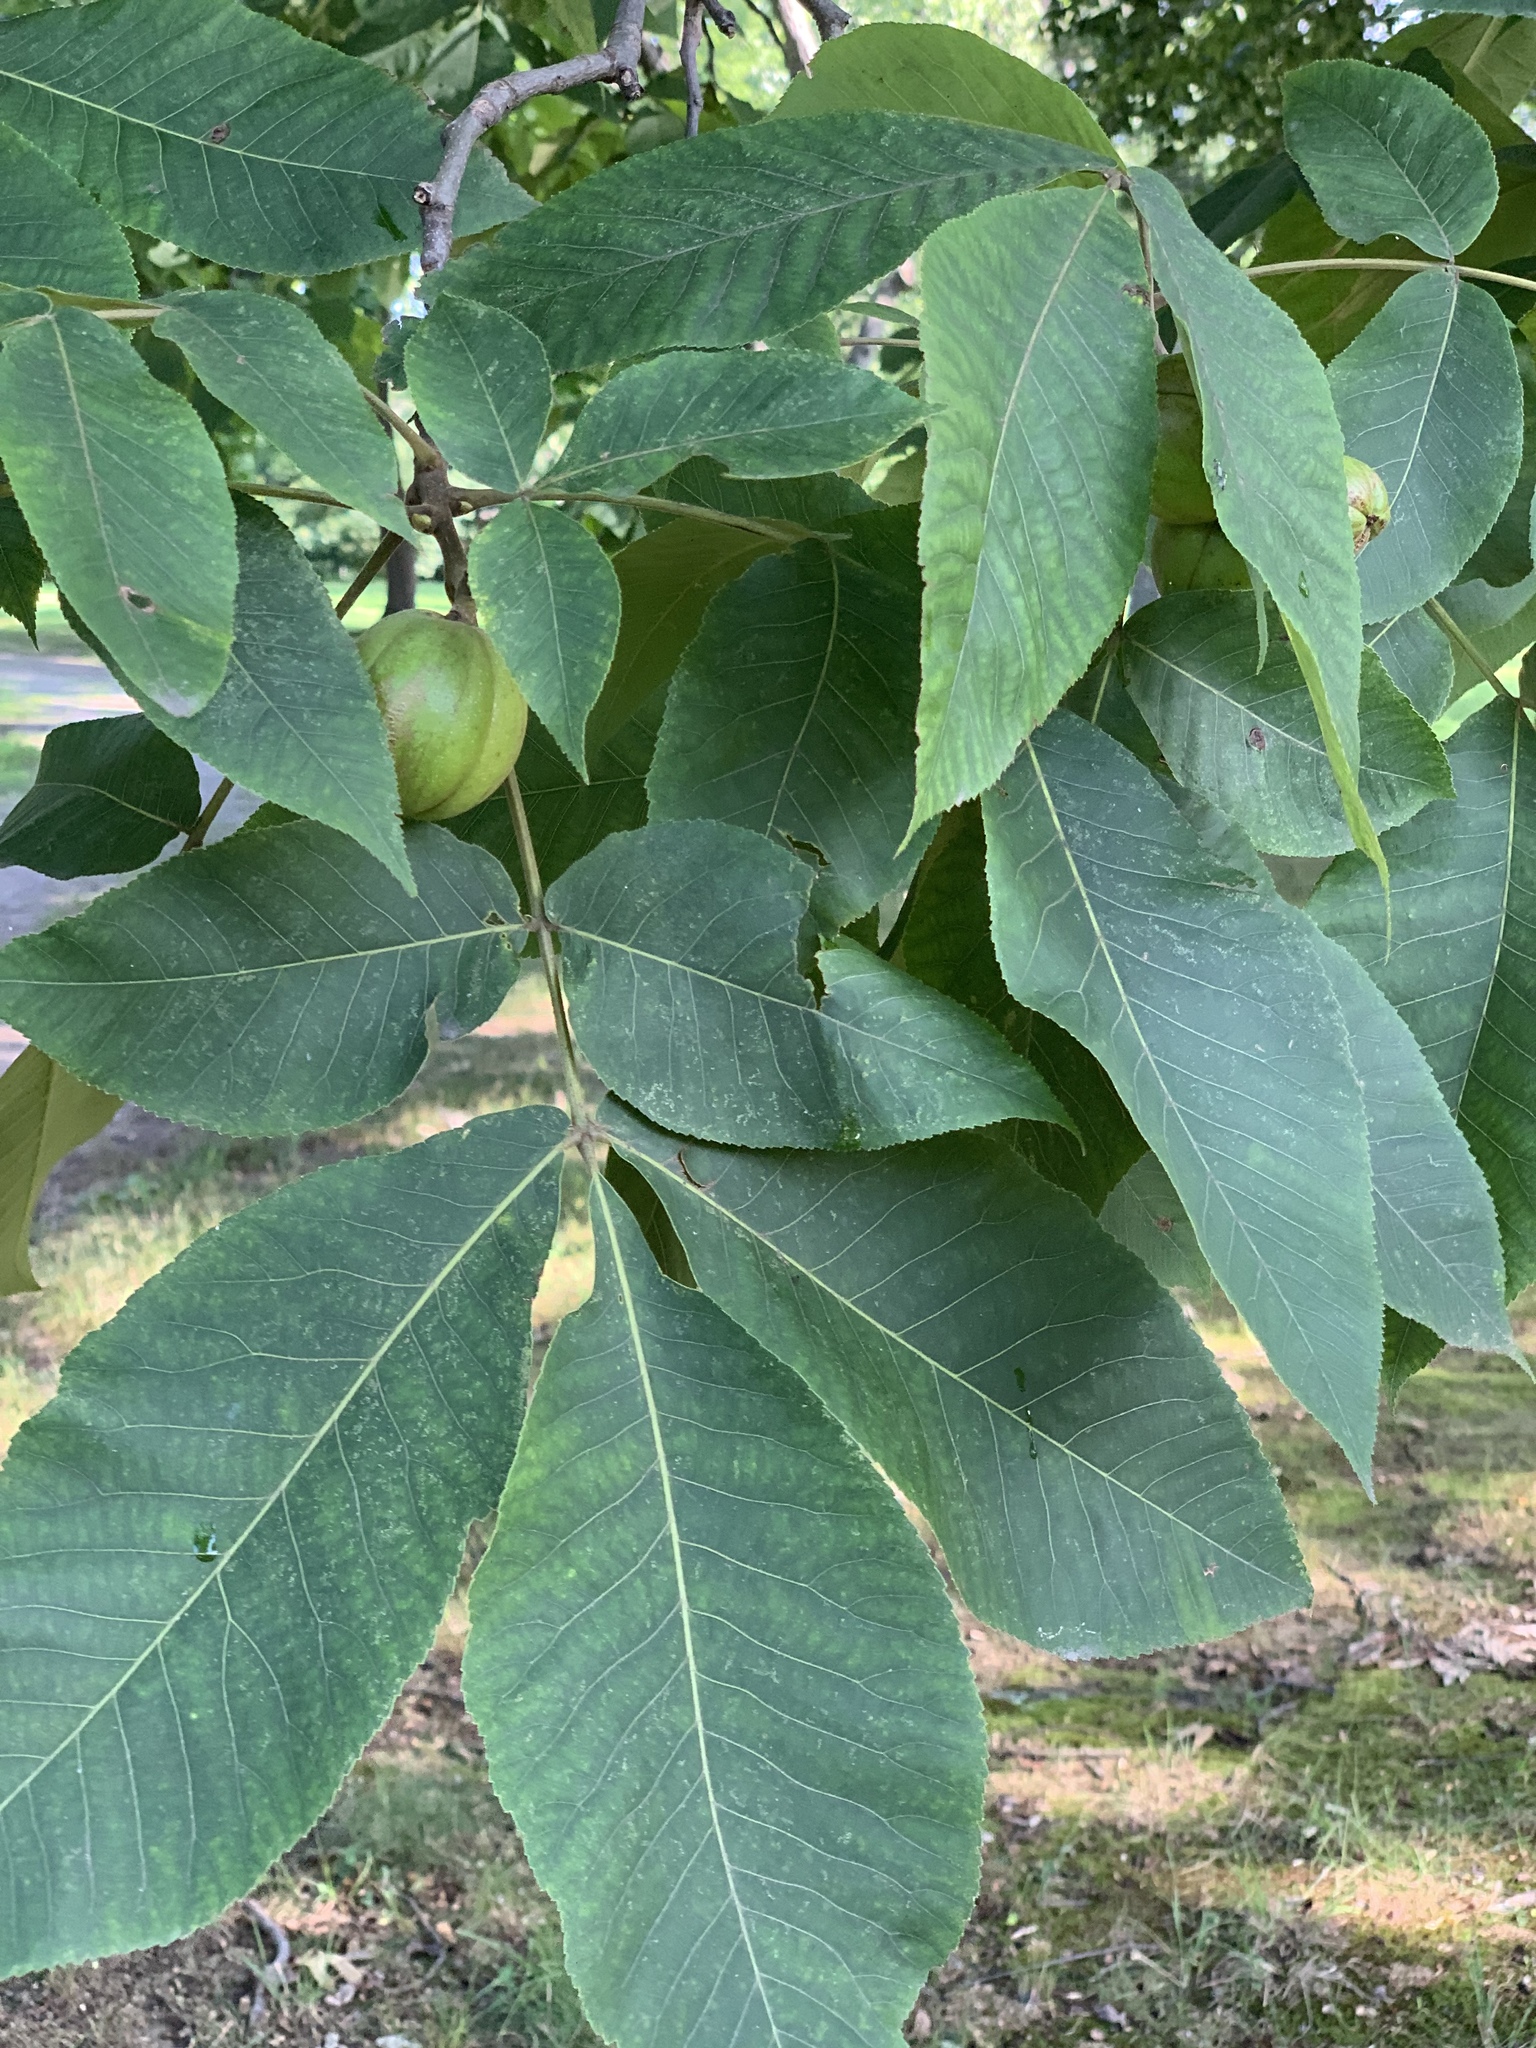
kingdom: Plantae
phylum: Tracheophyta
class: Magnoliopsida
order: Fagales
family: Juglandaceae
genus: Carya
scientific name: Carya ovata
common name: Shagbark hickory
